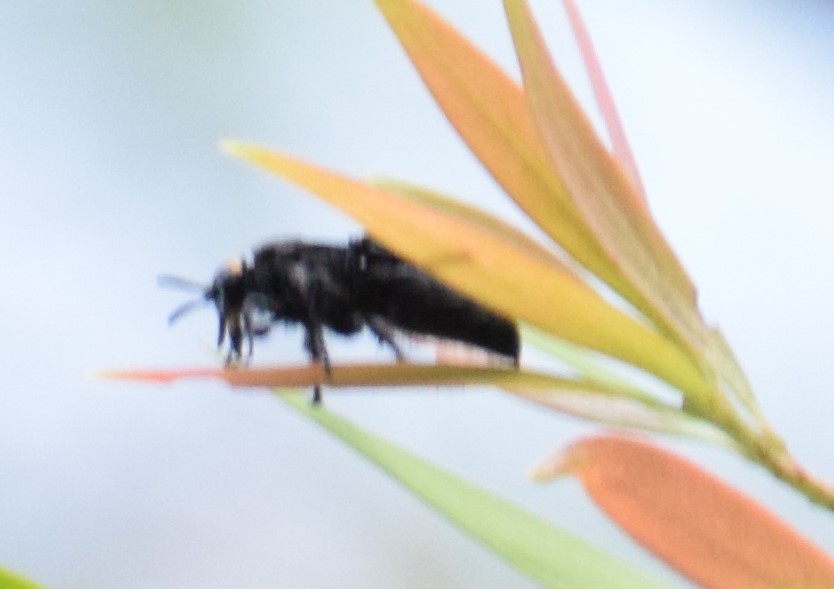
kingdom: Animalia
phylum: Arthropoda
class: Insecta
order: Hymenoptera
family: Scoliidae
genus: Scolia
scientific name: Scolia verticalis
